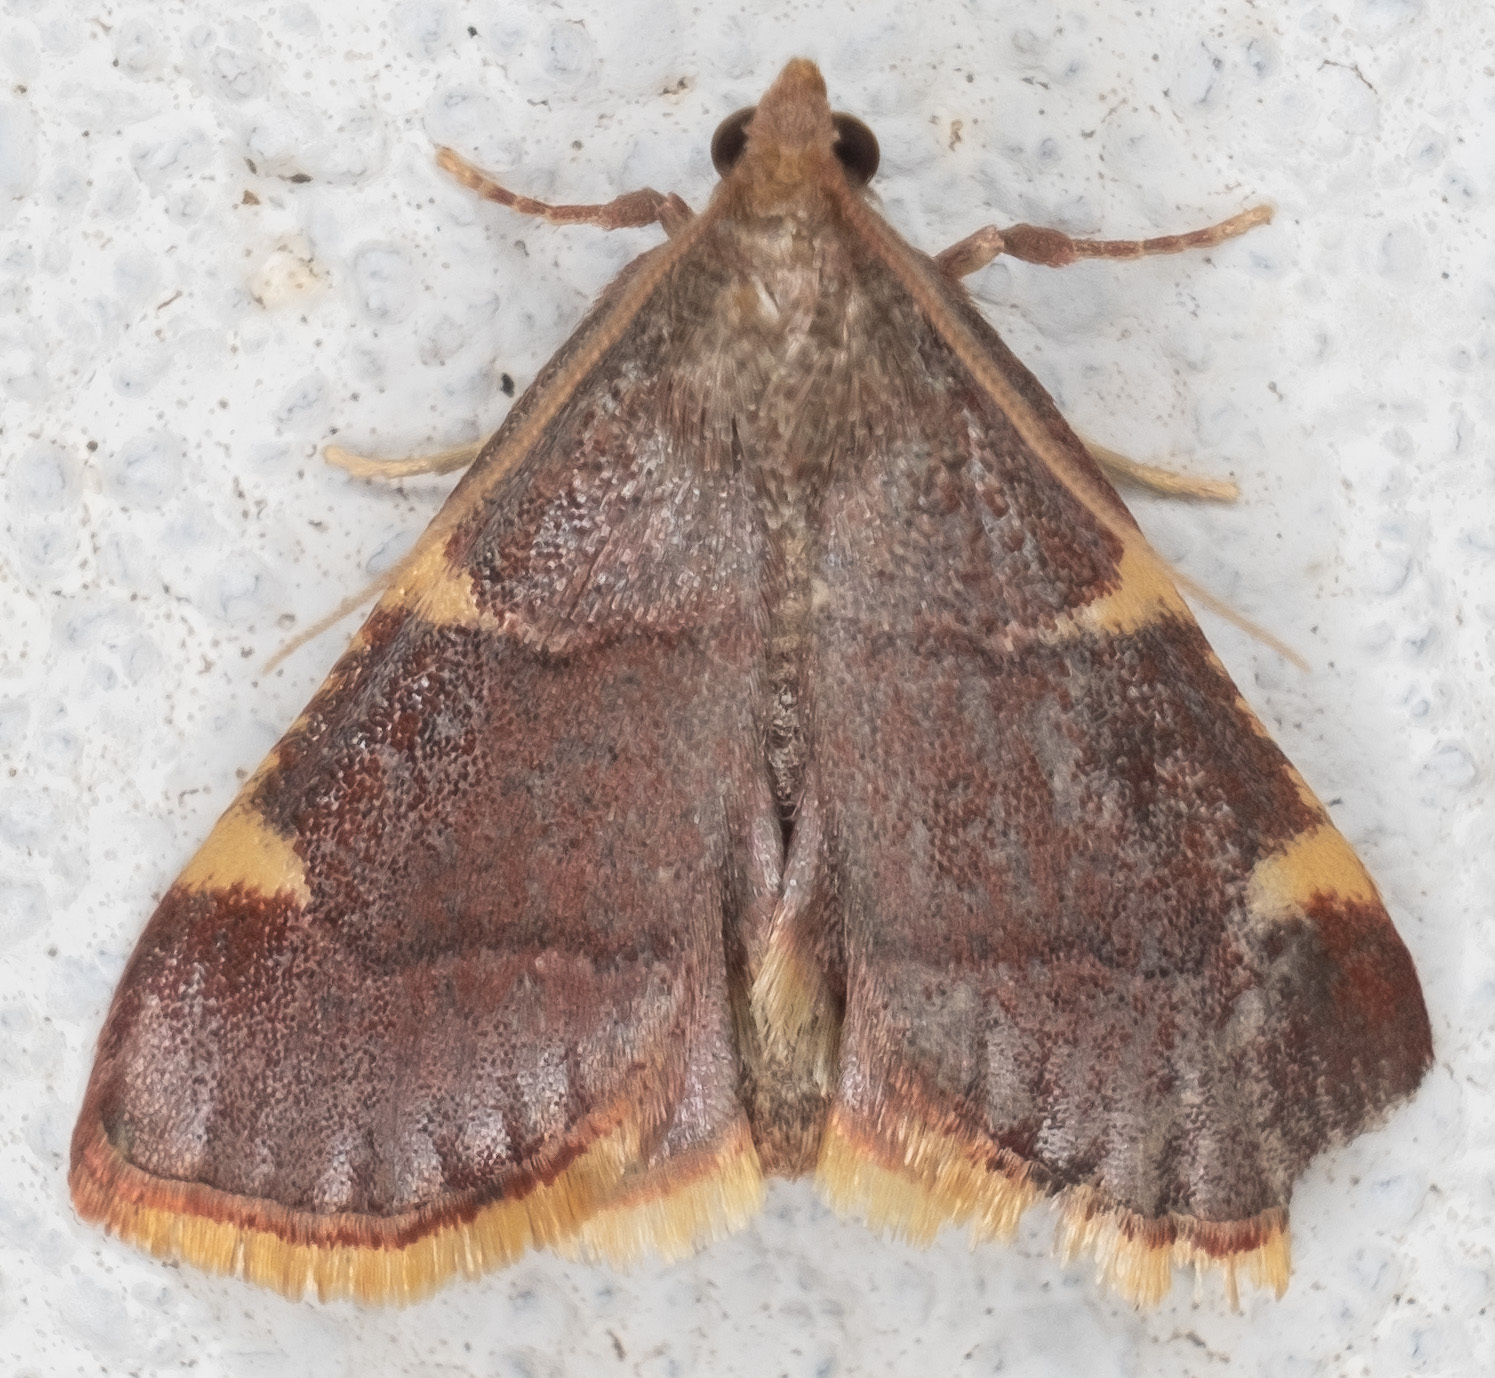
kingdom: Animalia
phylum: Arthropoda
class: Insecta
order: Lepidoptera
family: Pyralidae
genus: Hypsopygia
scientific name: Hypsopygia olinalis
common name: Yellow-fringed dolichomia moth
